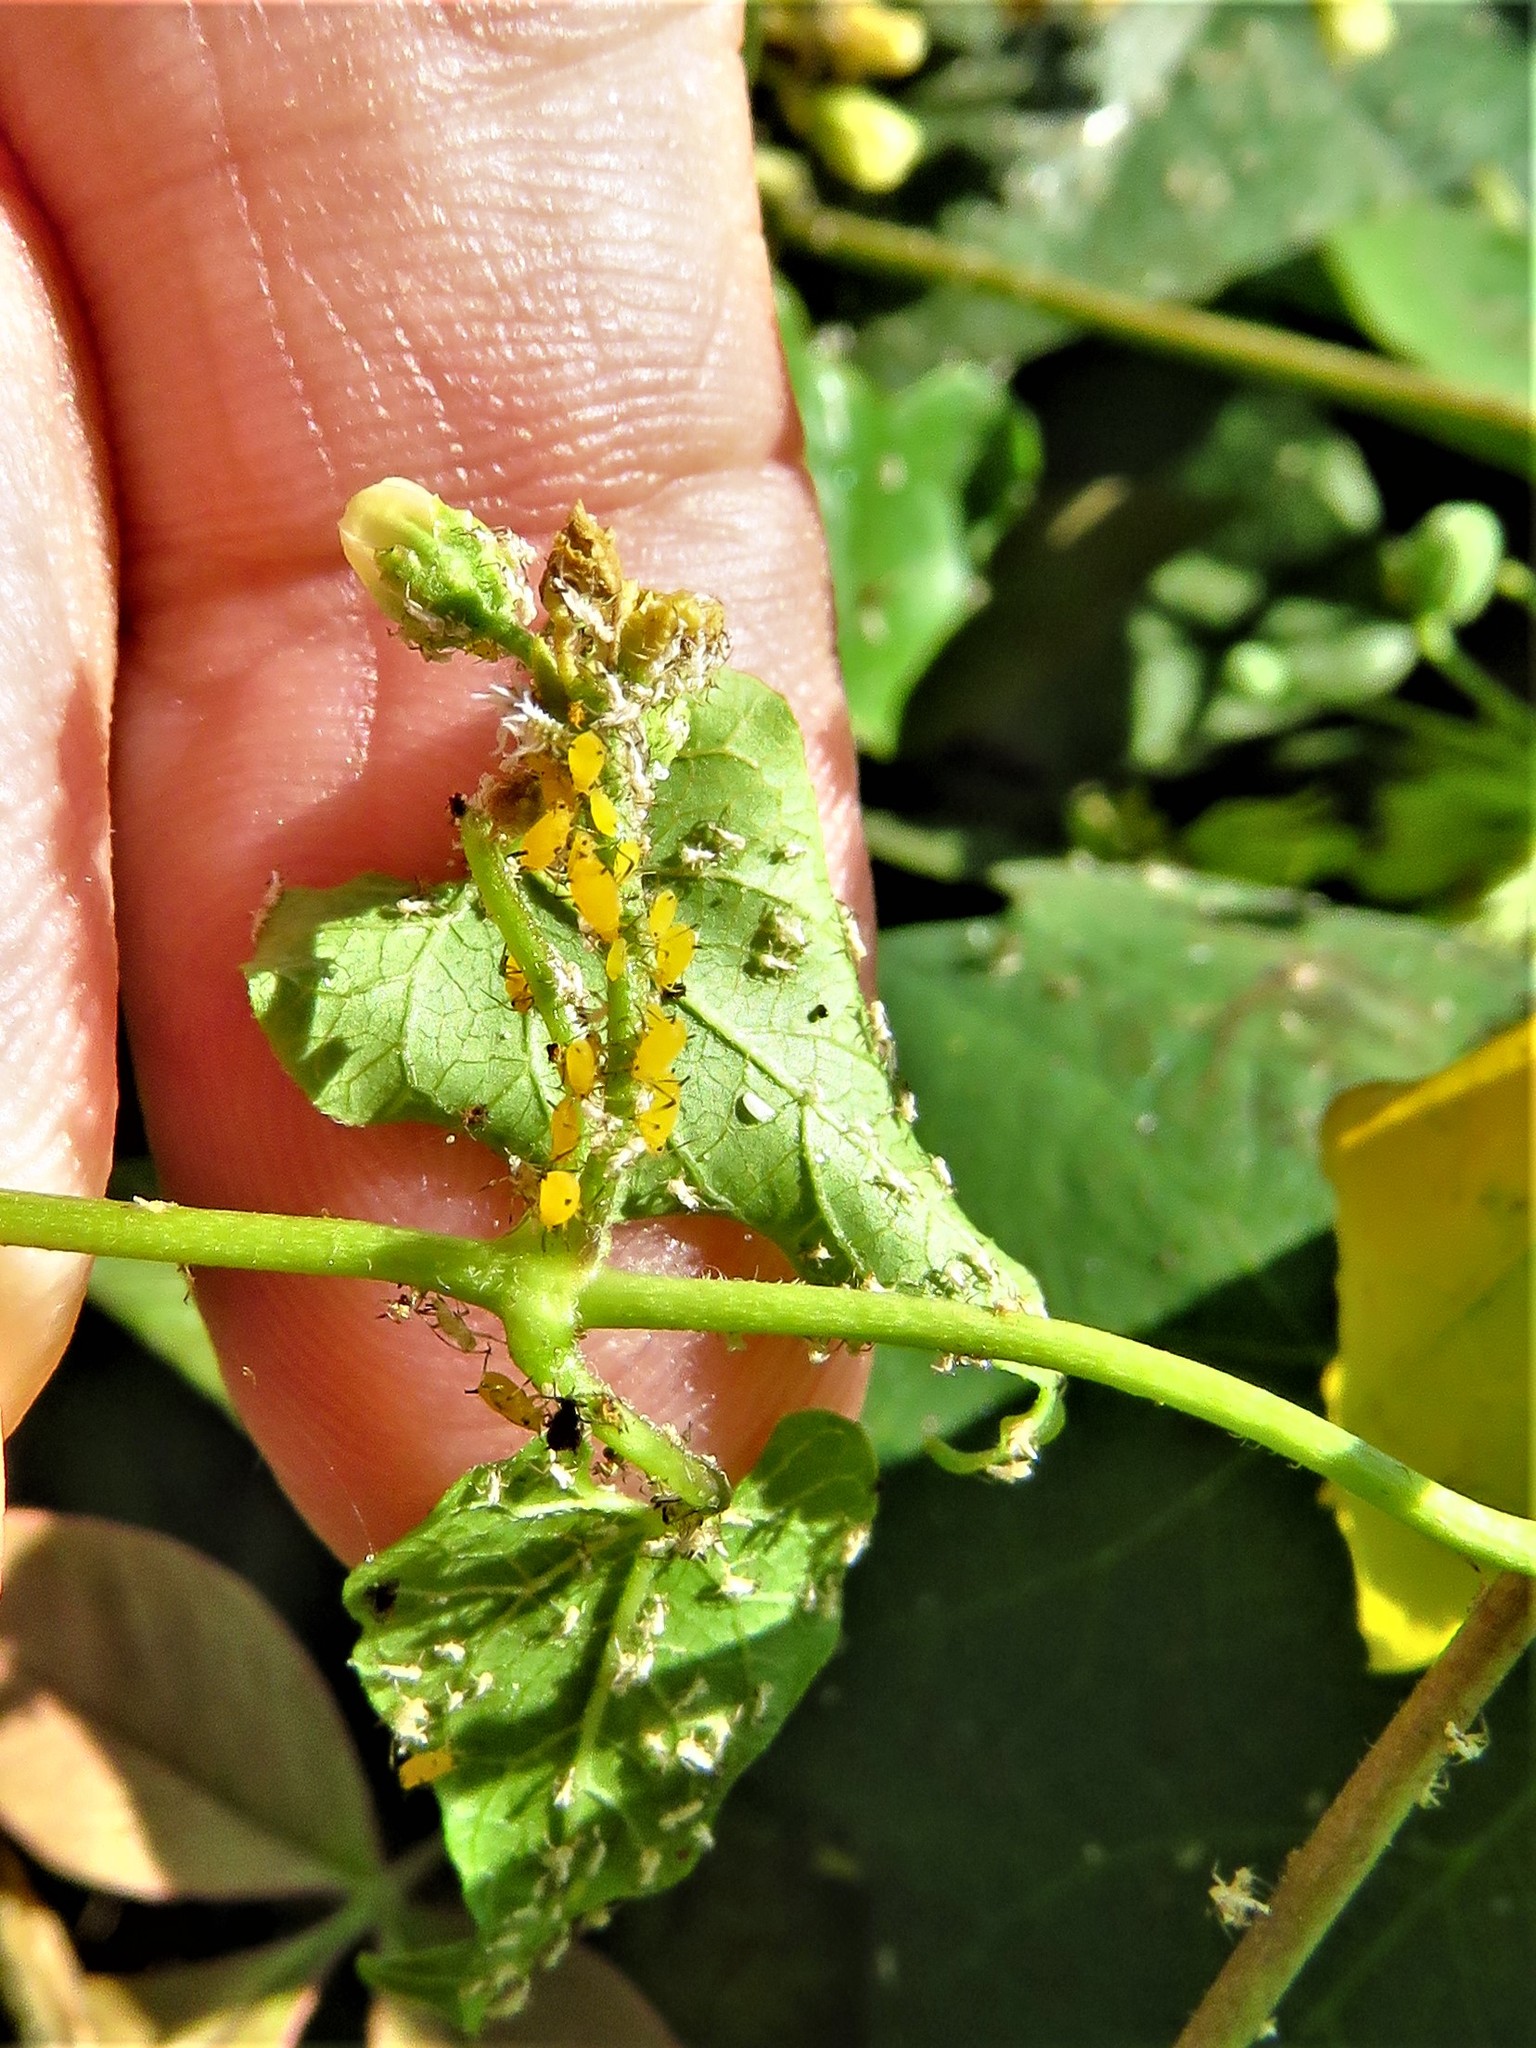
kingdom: Animalia
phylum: Arthropoda
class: Insecta
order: Hemiptera
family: Aphididae
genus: Aphis
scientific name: Aphis nerii
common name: Oleander aphid
